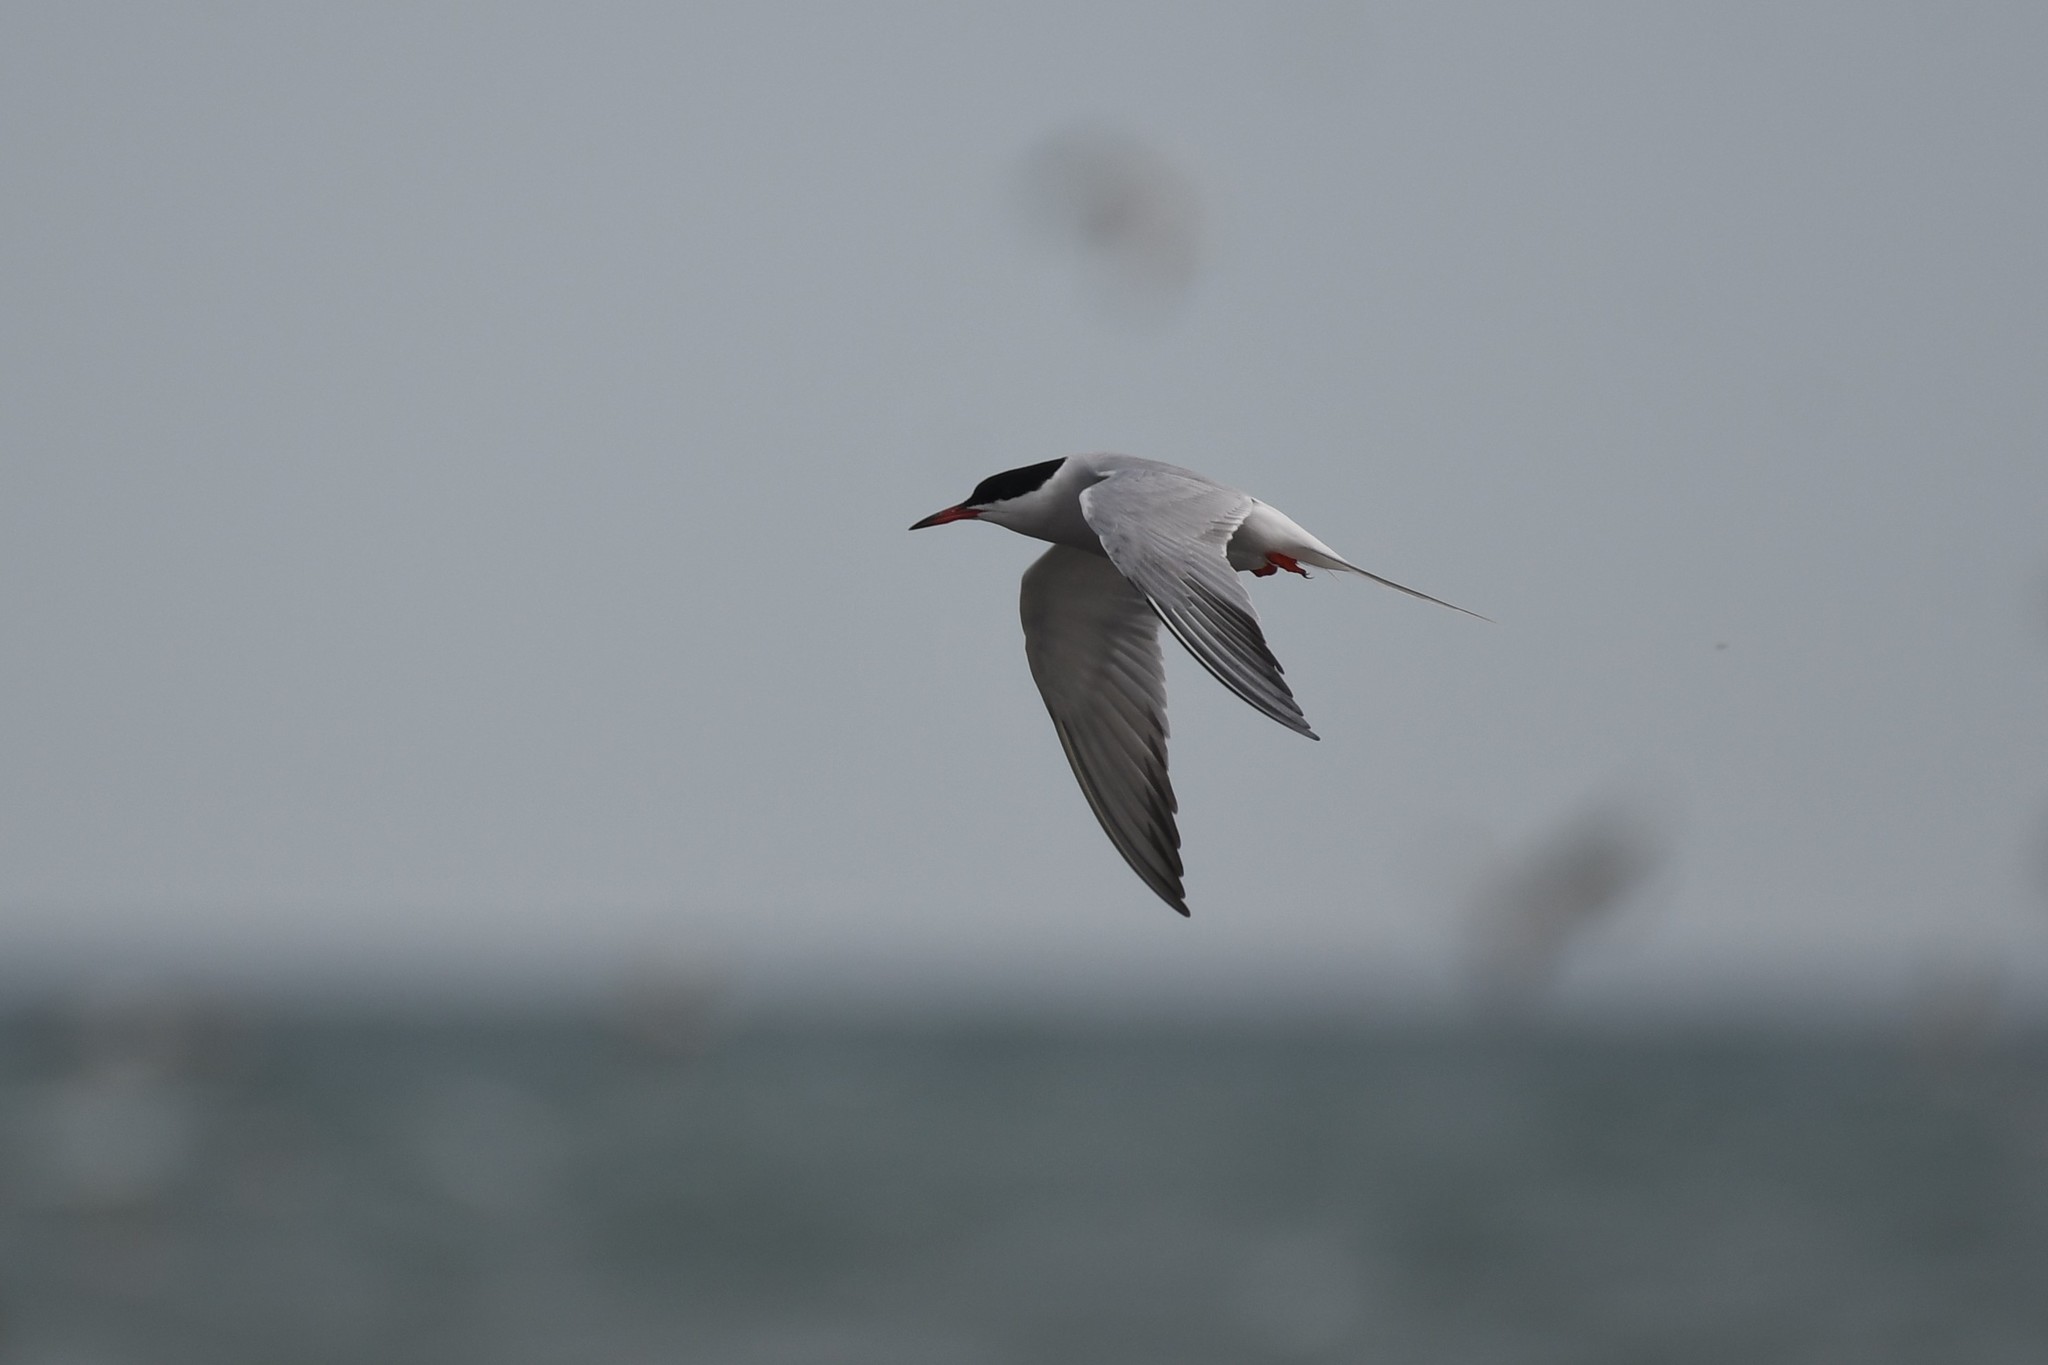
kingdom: Animalia
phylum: Chordata
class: Aves
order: Charadriiformes
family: Laridae
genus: Sterna
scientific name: Sterna hirundo
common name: Common tern
